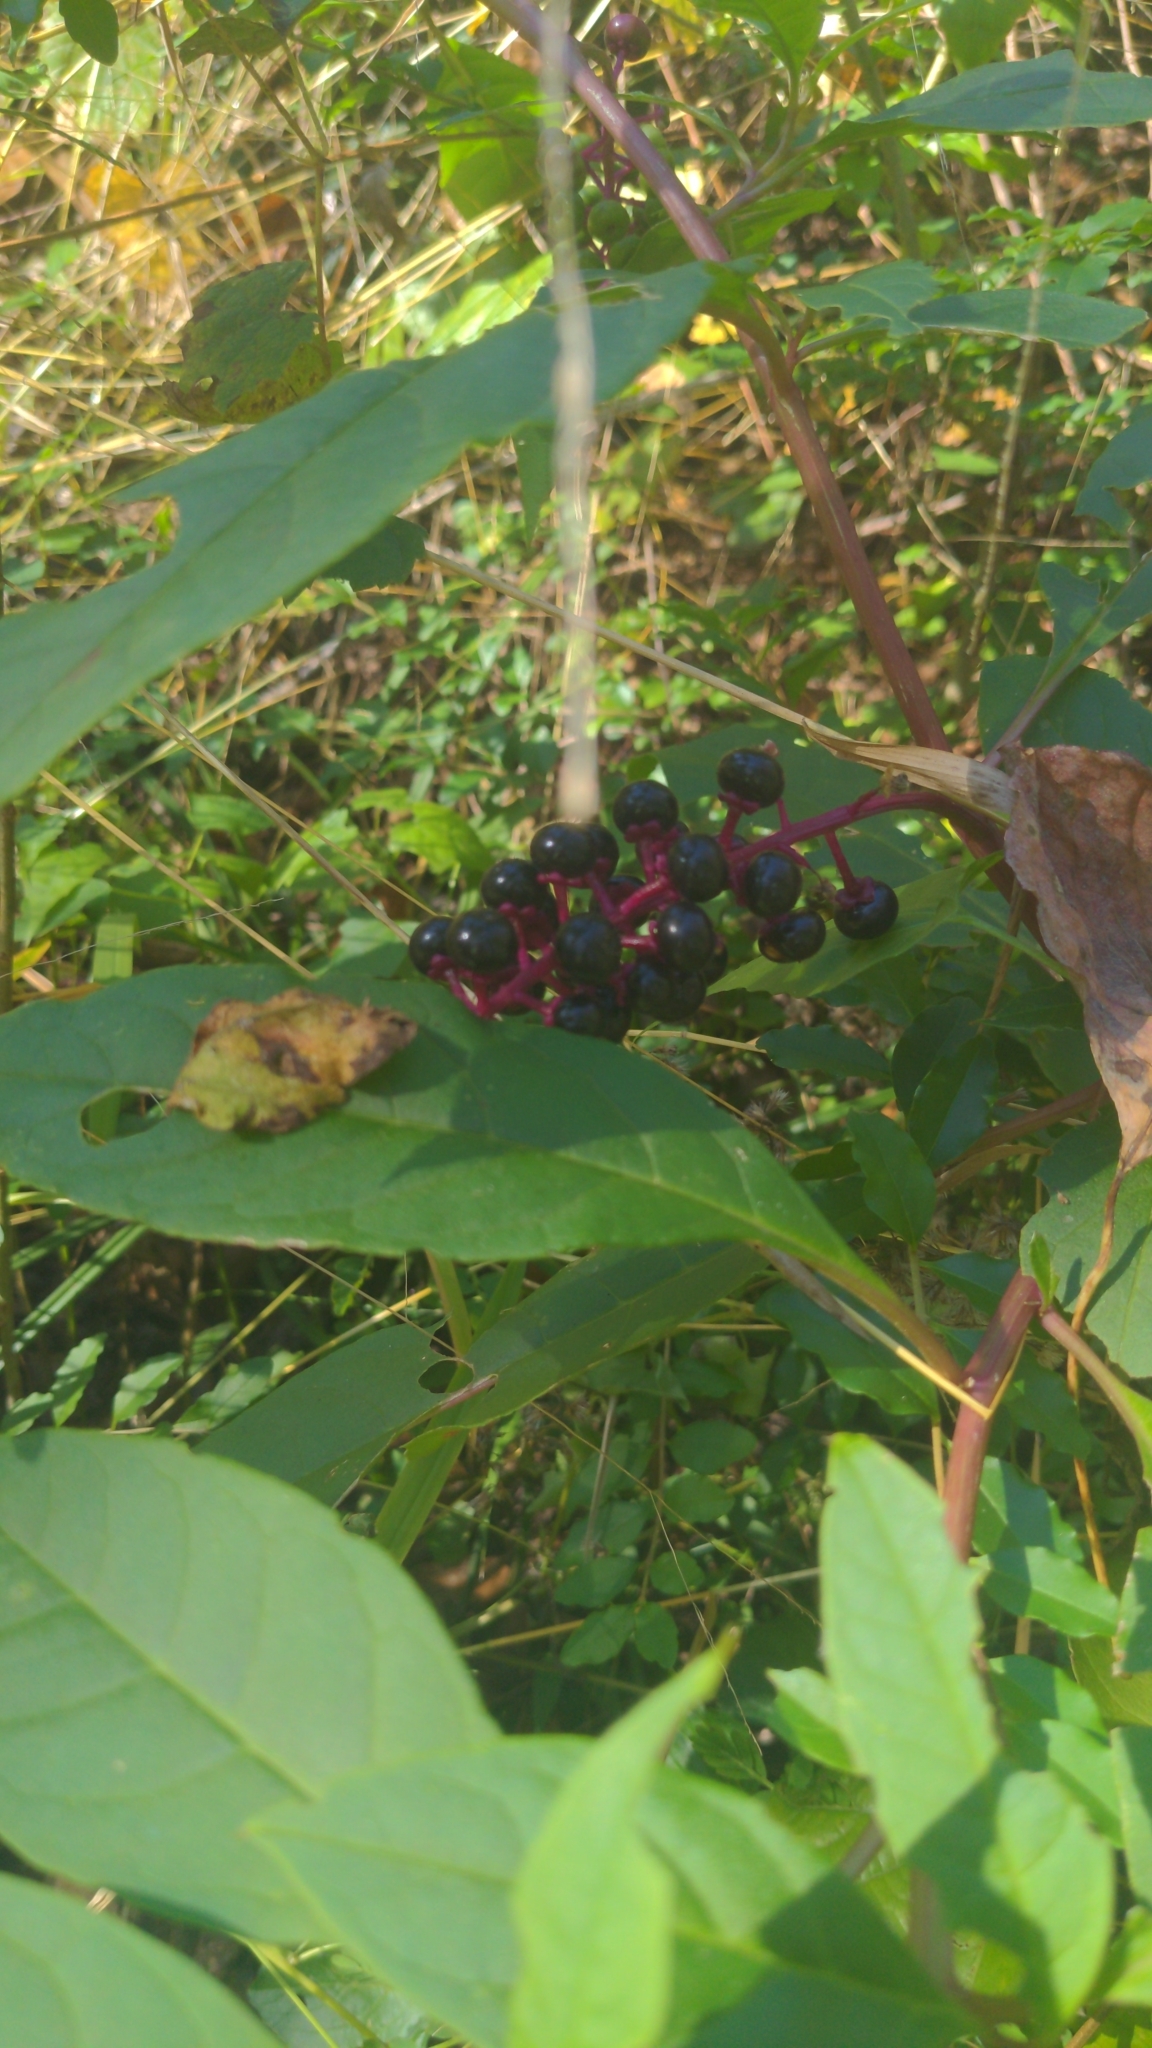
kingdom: Plantae
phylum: Tracheophyta
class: Magnoliopsida
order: Caryophyllales
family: Phytolaccaceae
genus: Phytolacca
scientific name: Phytolacca americana
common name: American pokeweed
